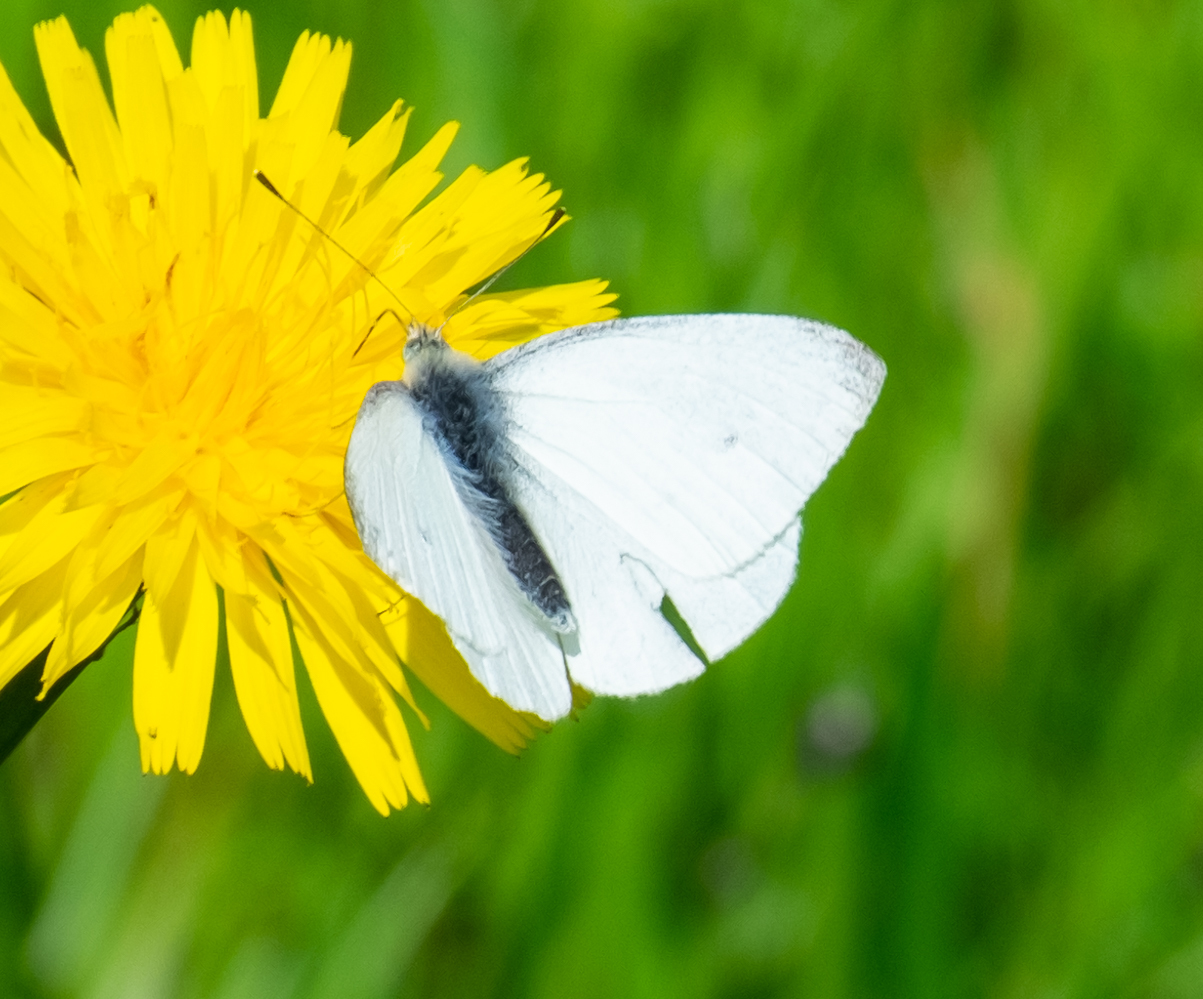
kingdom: Animalia
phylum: Arthropoda
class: Insecta
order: Lepidoptera
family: Pieridae
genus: Pieris
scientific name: Pieris rapae
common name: Small white
